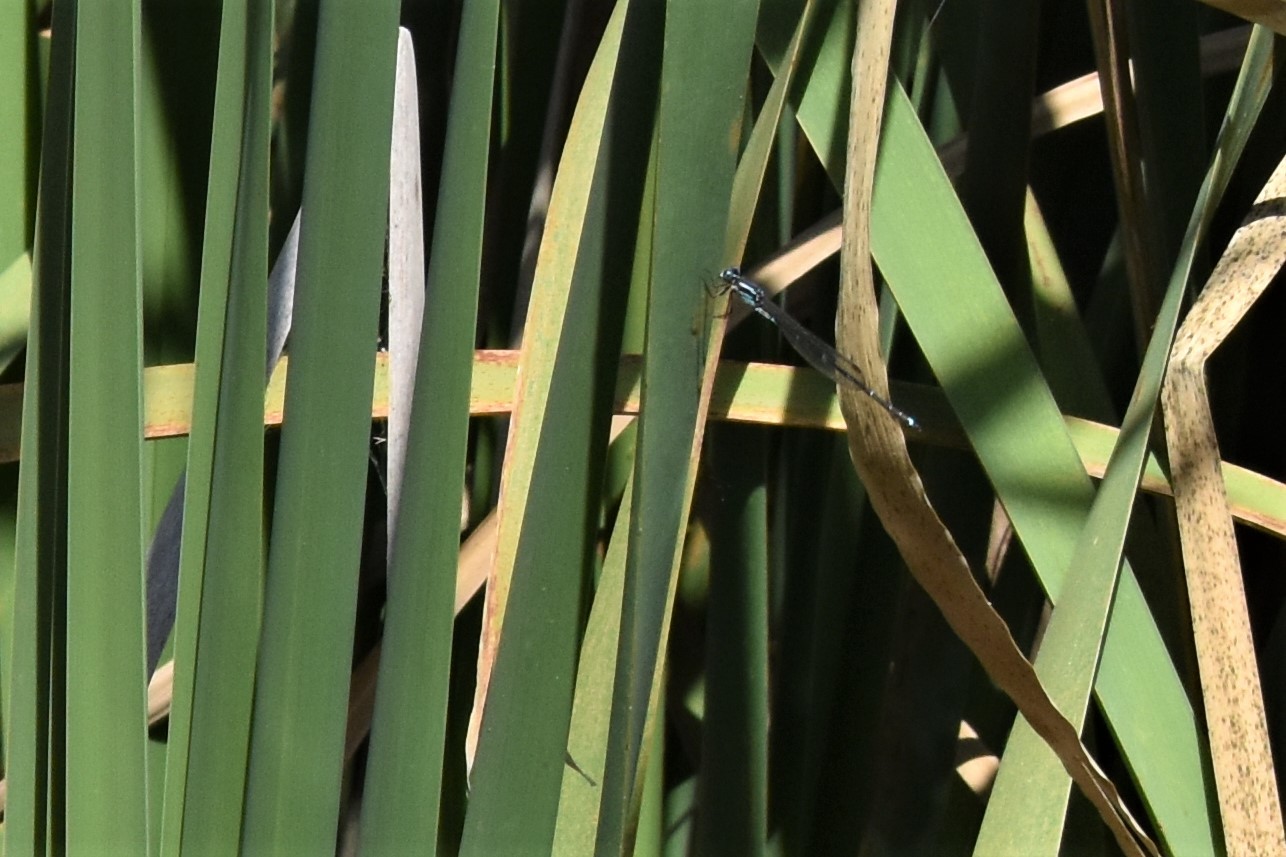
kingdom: Animalia
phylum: Arthropoda
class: Insecta
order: Odonata
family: Lestidae
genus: Austrolestes
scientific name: Austrolestes colensonis
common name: Blue damselfly
